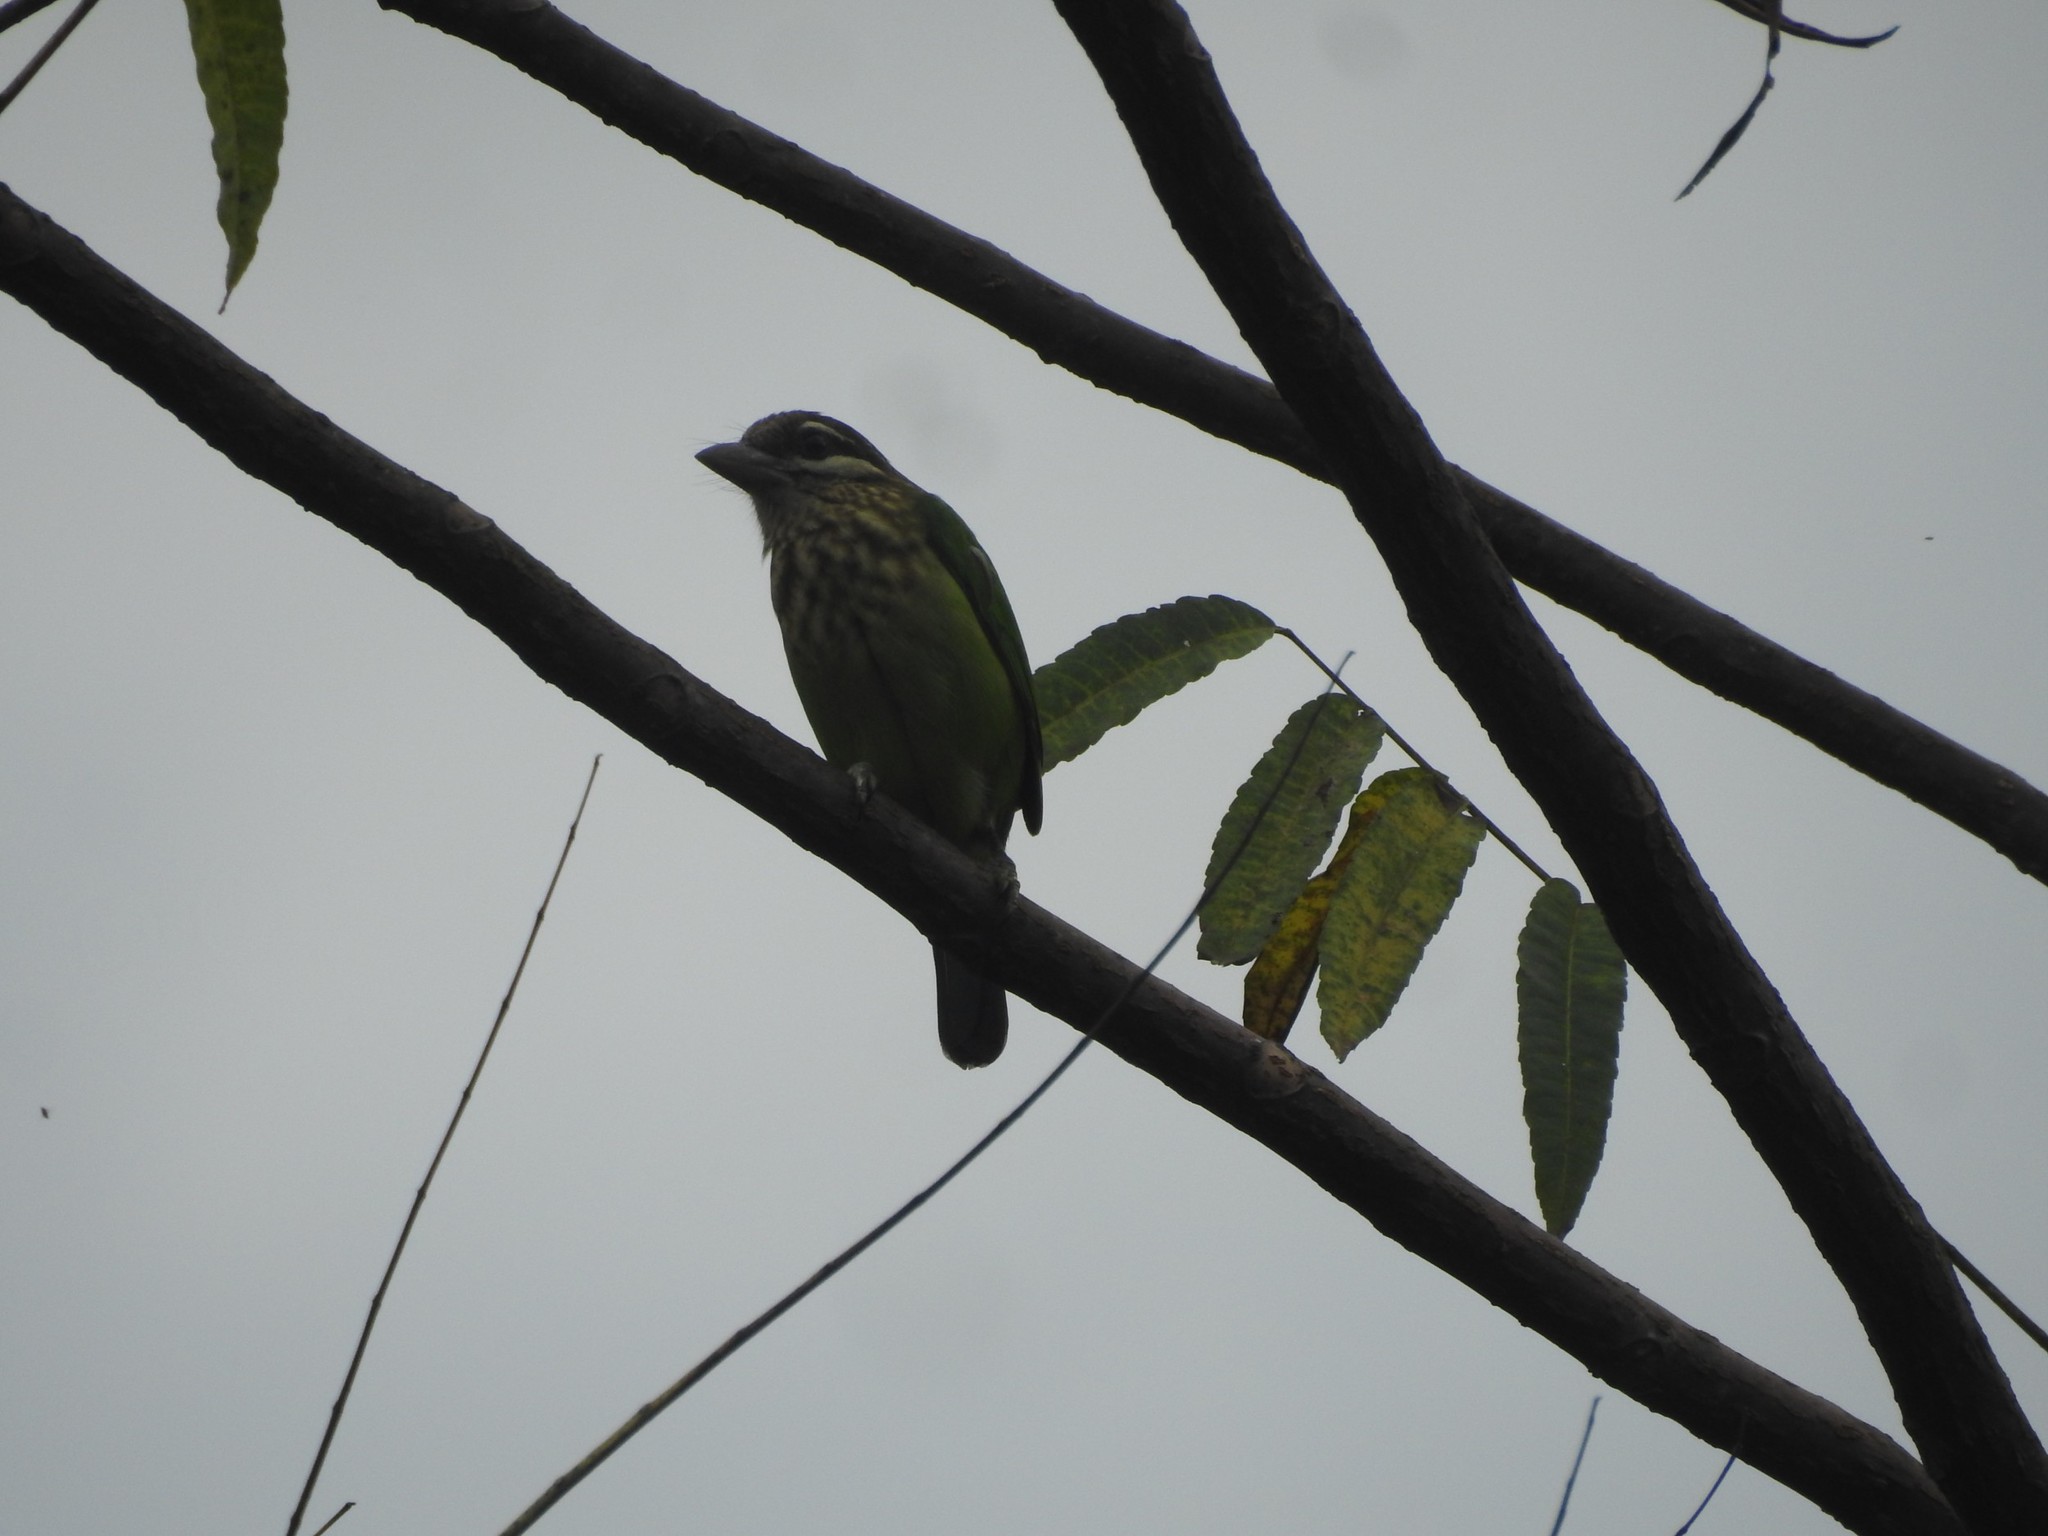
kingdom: Animalia
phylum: Chordata
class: Aves
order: Piciformes
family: Megalaimidae
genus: Psilopogon
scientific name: Psilopogon viridis
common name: White-cheeked barbet
